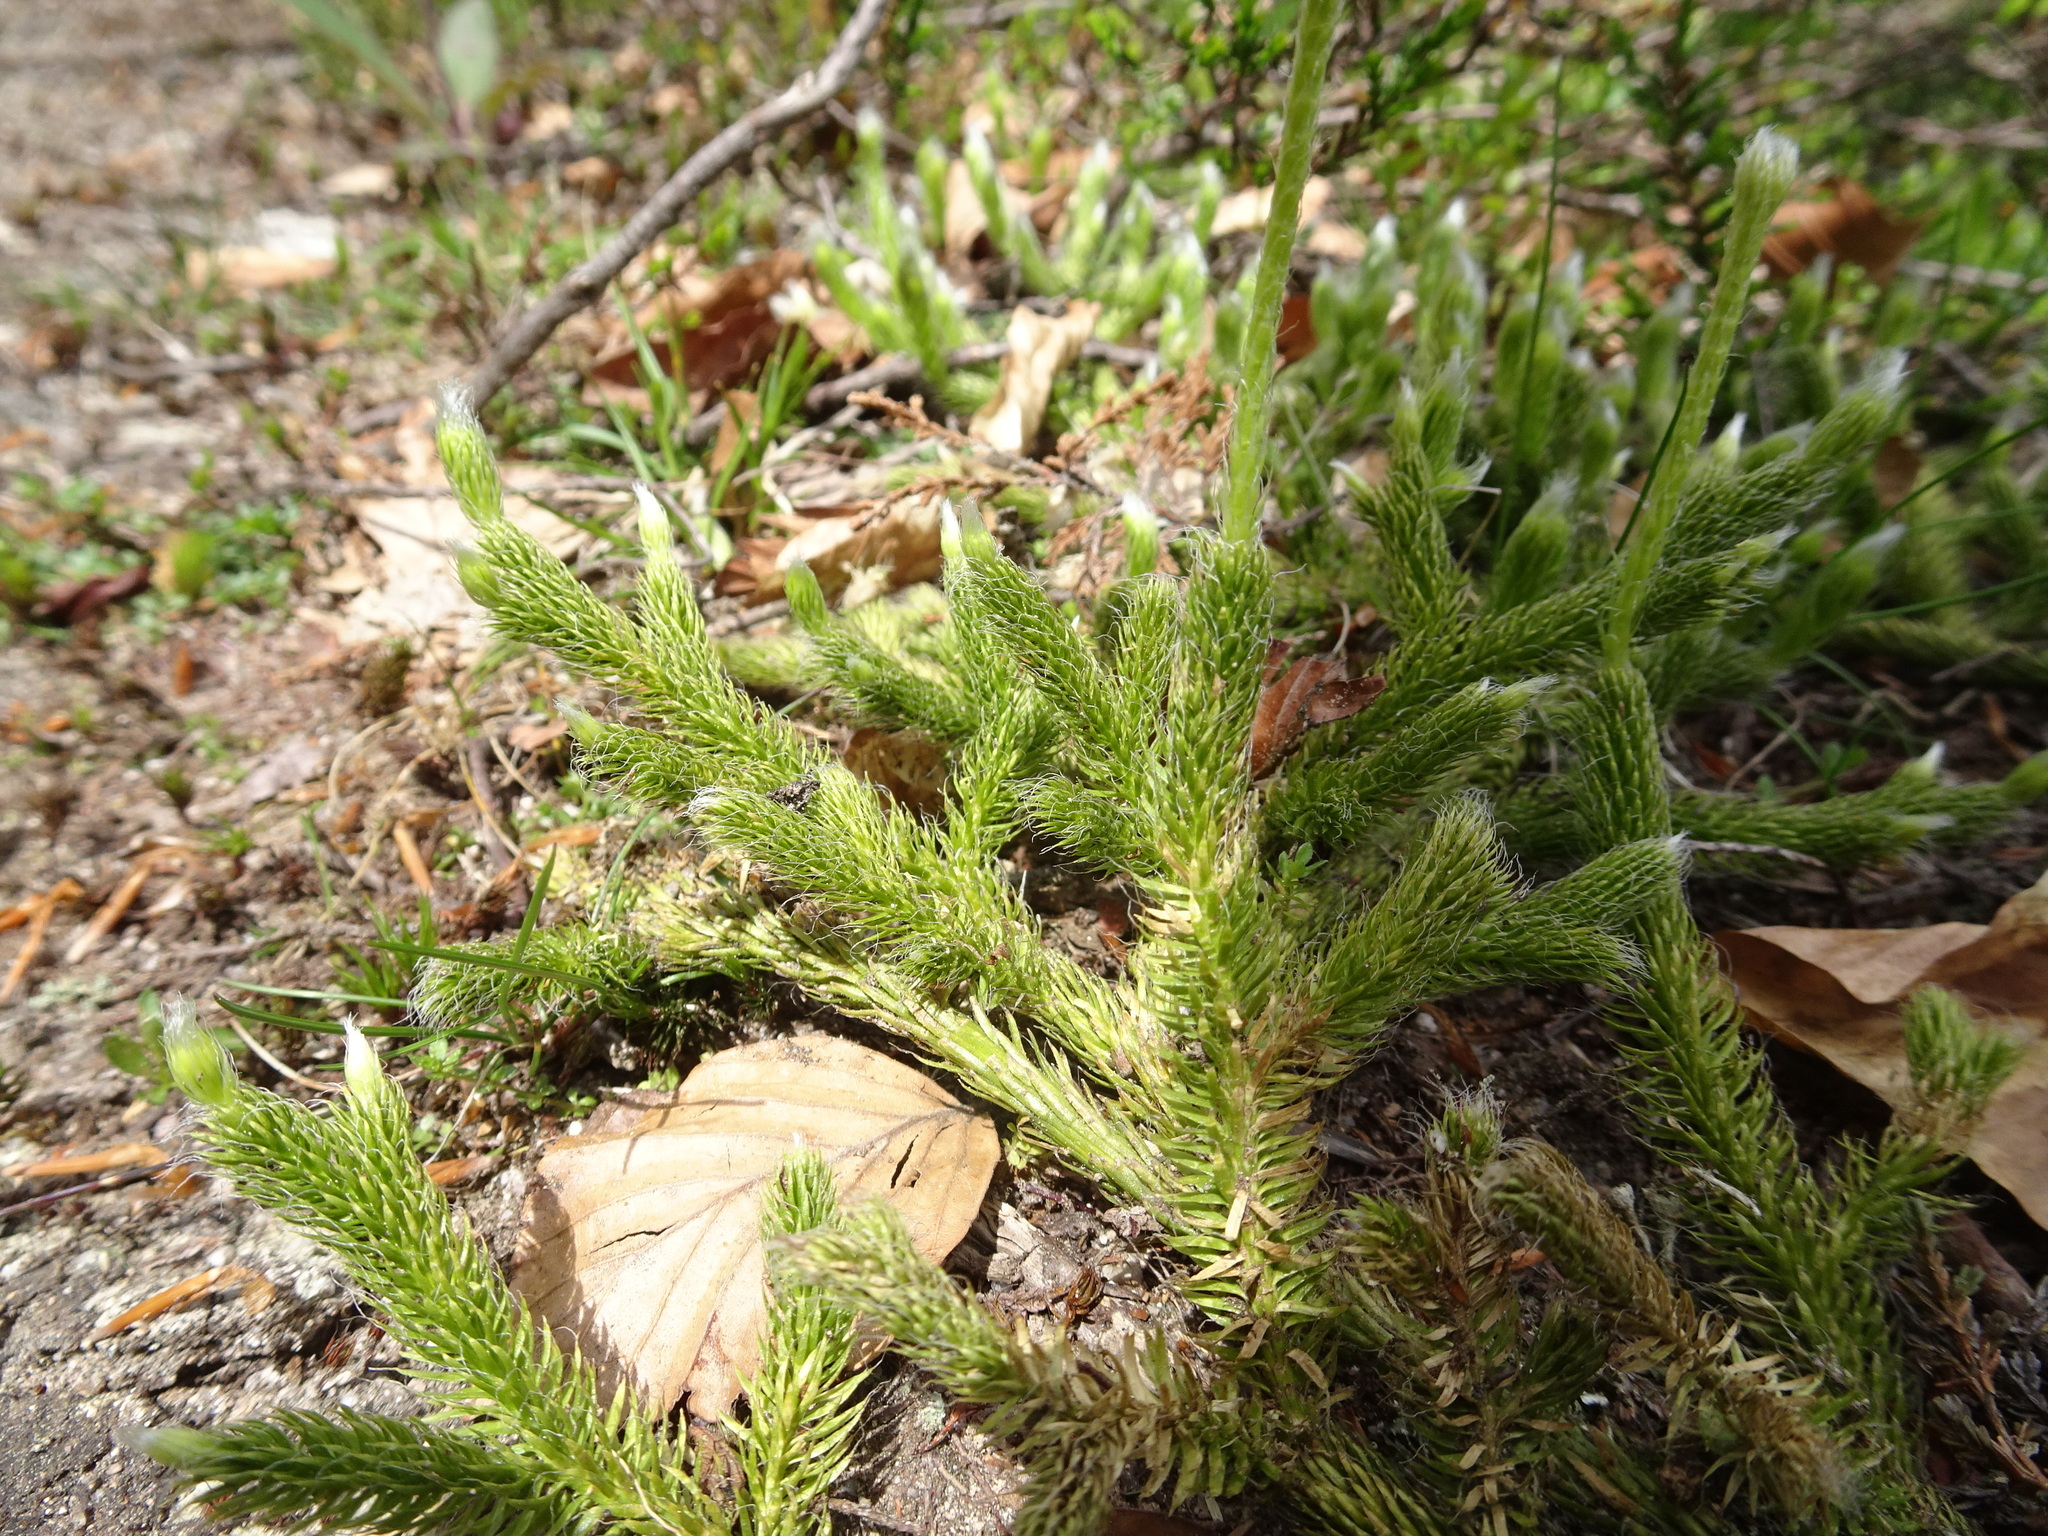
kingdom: Plantae
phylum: Tracheophyta
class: Lycopodiopsida
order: Lycopodiales
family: Lycopodiaceae
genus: Lycopodium
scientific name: Lycopodium clavatum
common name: Stag's-horn clubmoss
